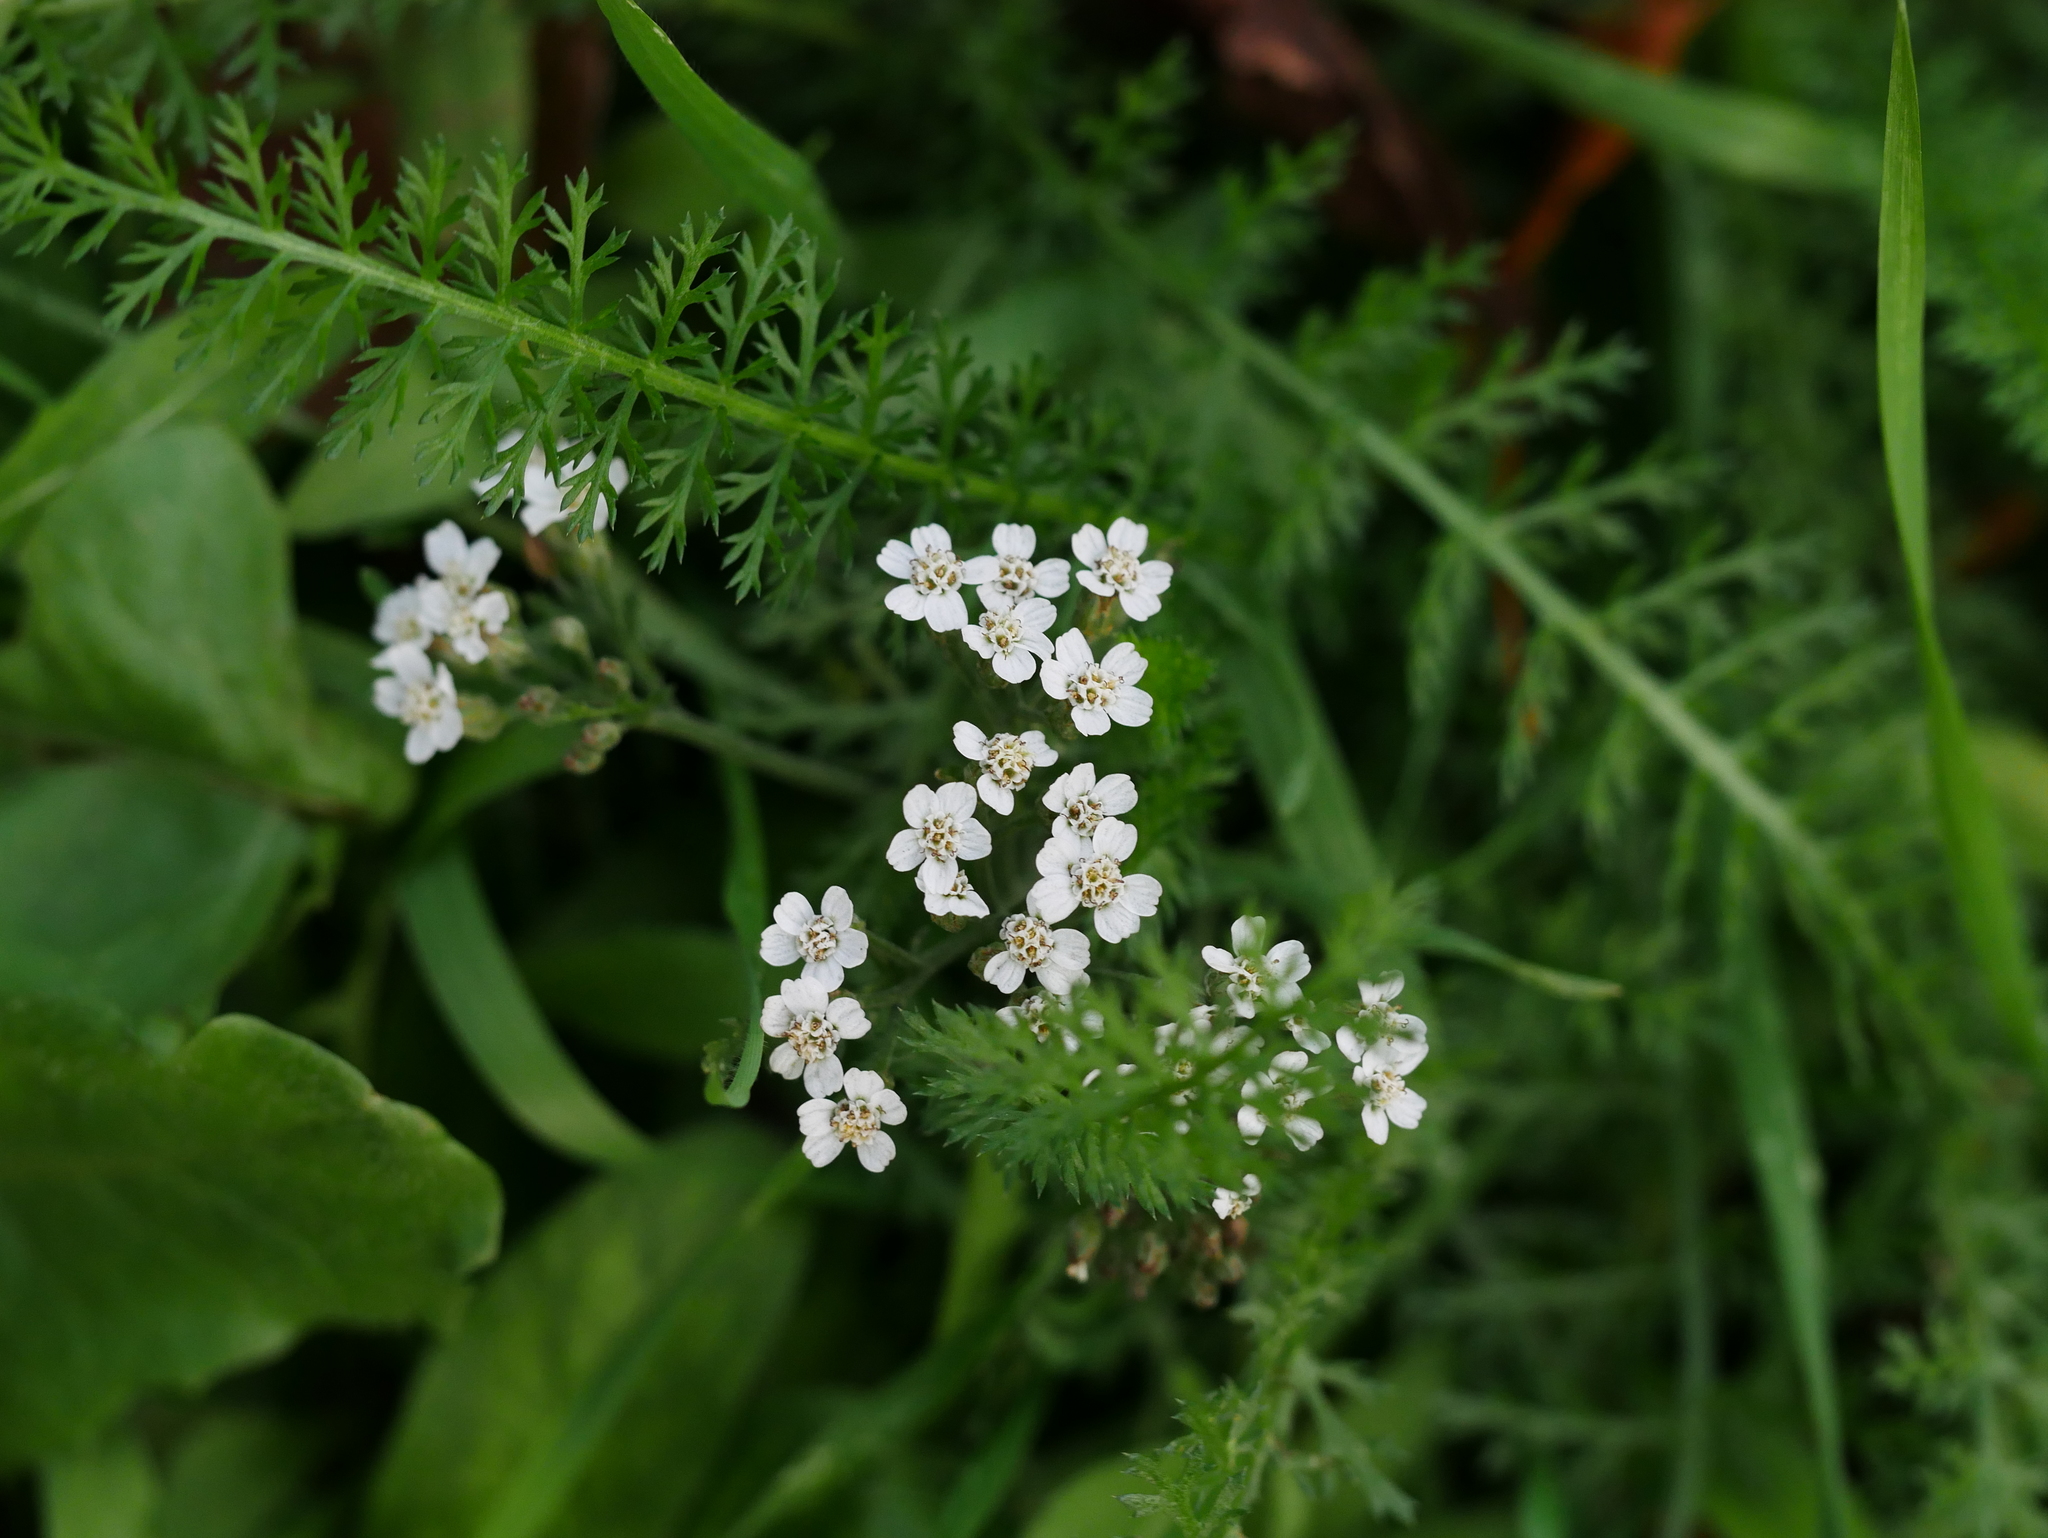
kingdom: Plantae
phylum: Tracheophyta
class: Magnoliopsida
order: Asterales
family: Asteraceae
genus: Achillea
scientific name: Achillea millefolium
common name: Yarrow
